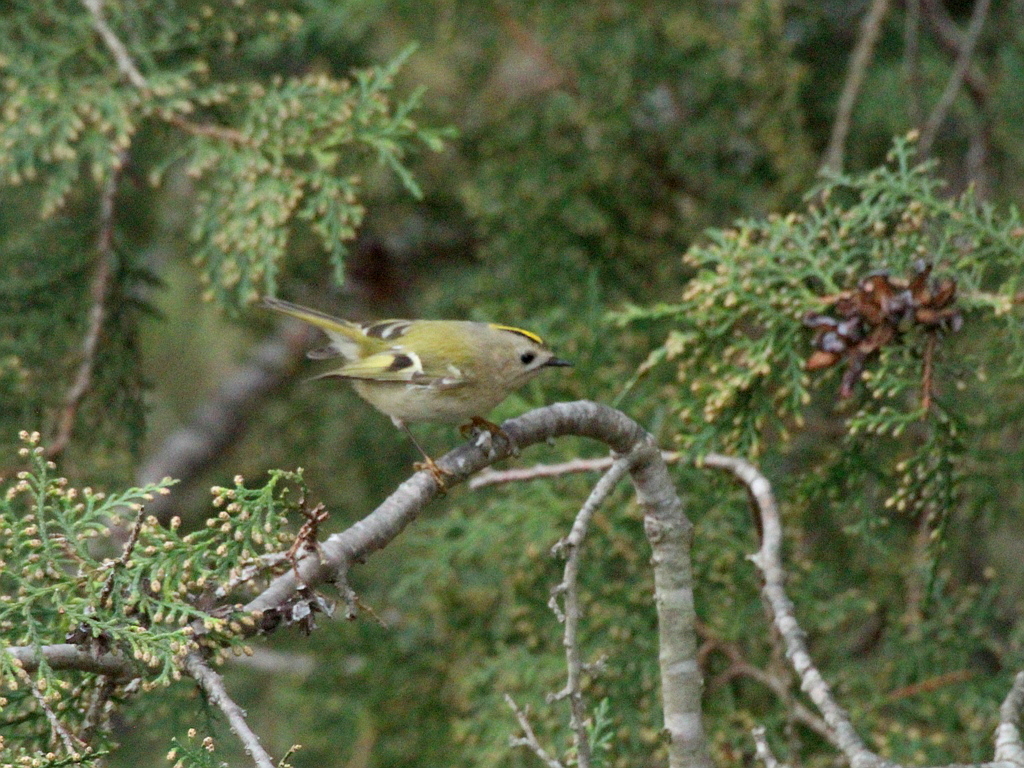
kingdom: Animalia
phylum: Chordata
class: Aves
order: Passeriformes
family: Regulidae
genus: Regulus
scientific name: Regulus regulus
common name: Goldcrest
